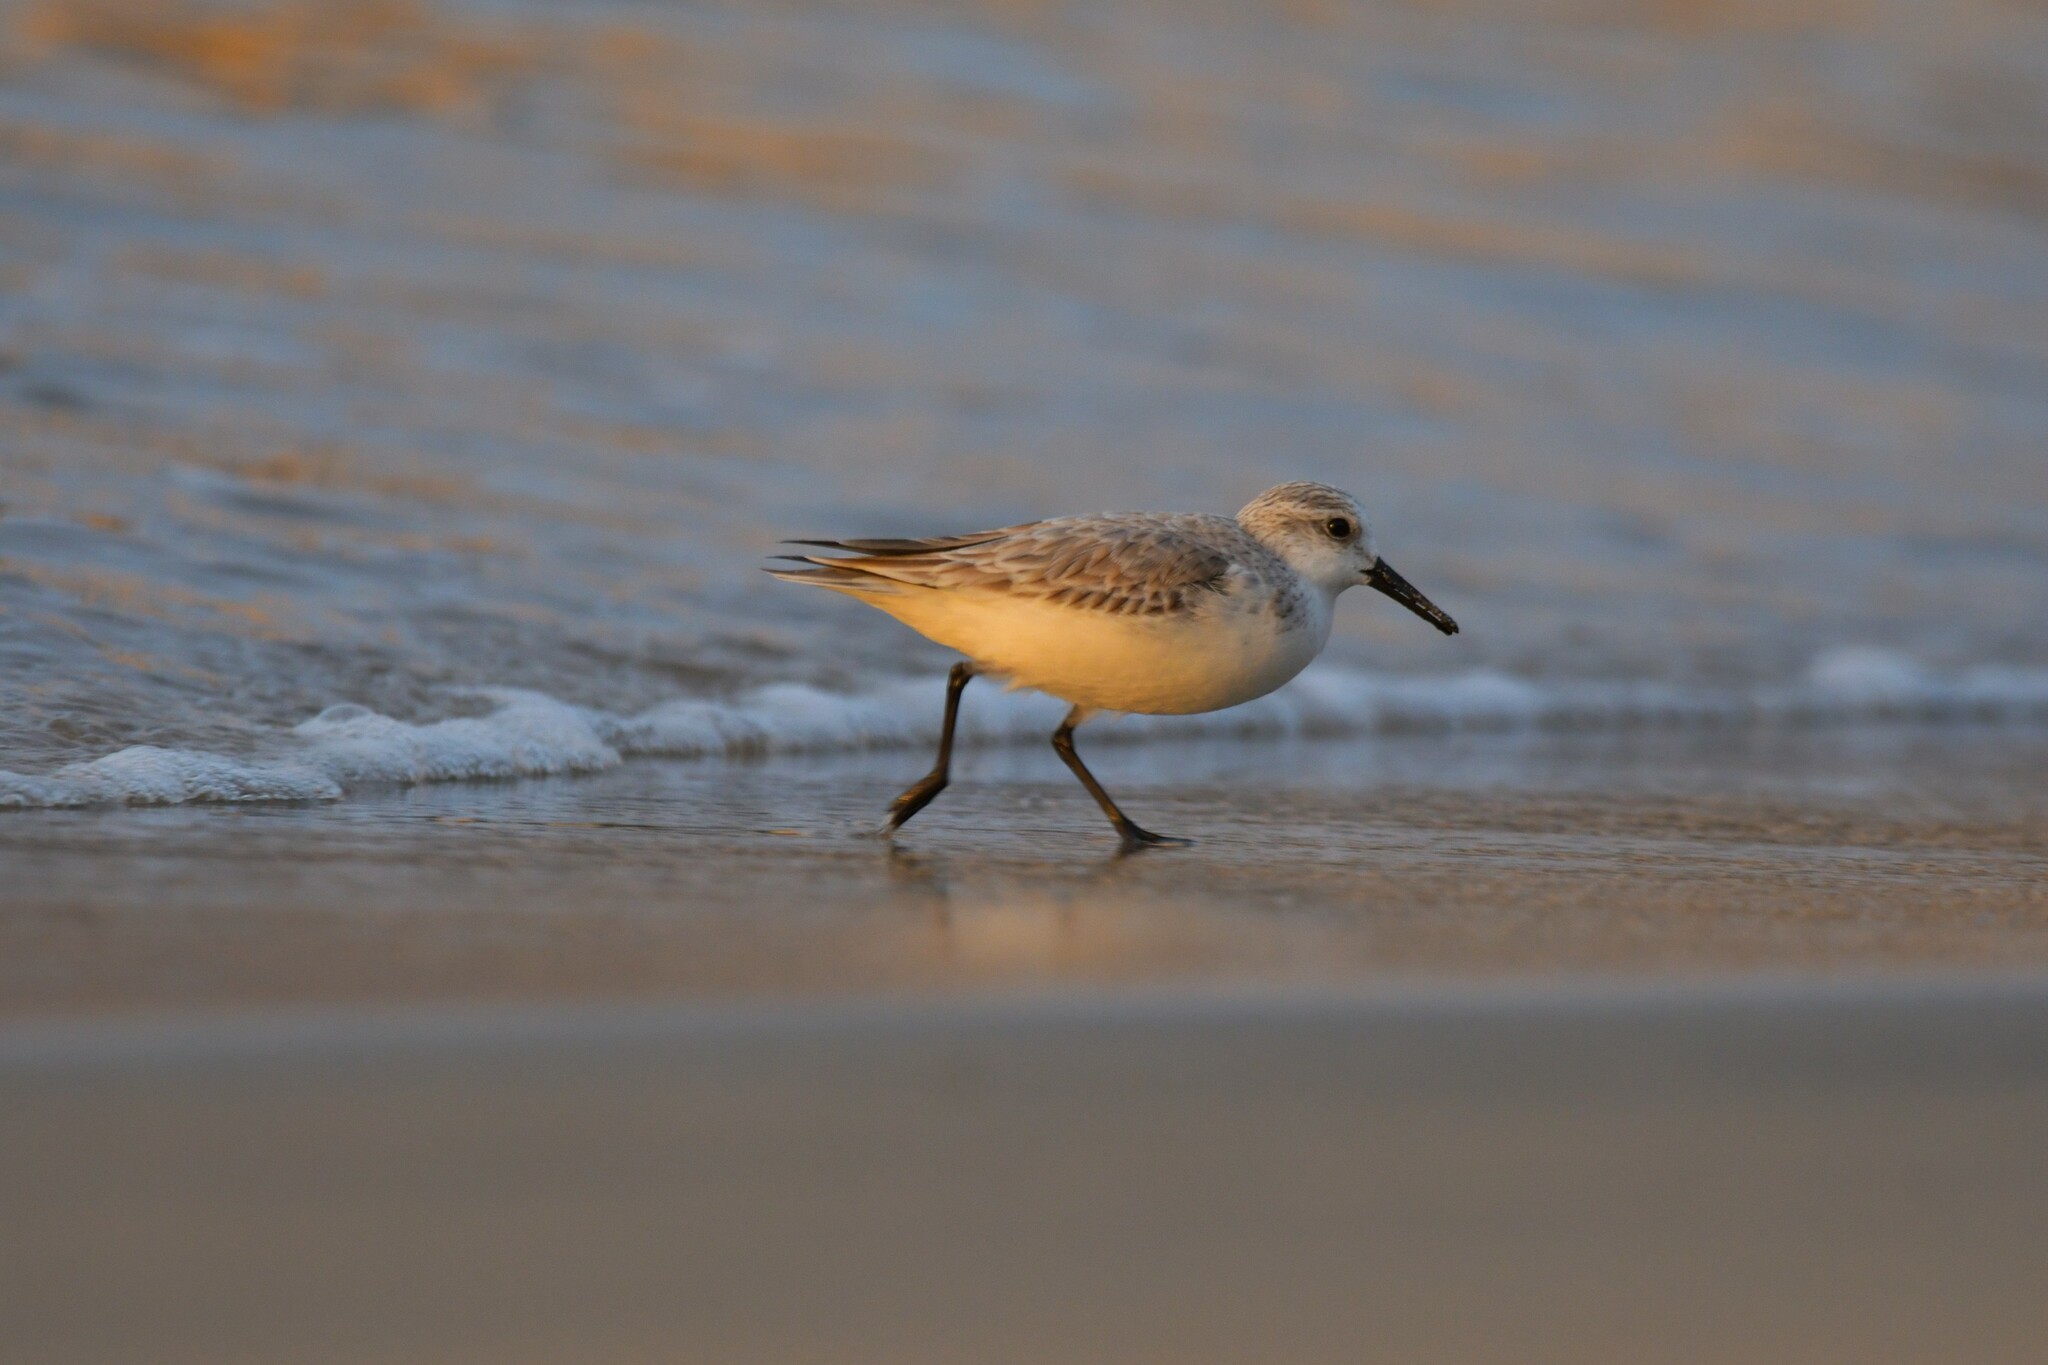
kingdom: Animalia
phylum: Chordata
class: Aves
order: Charadriiformes
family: Scolopacidae
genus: Calidris
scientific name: Calidris alba
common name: Sanderling
